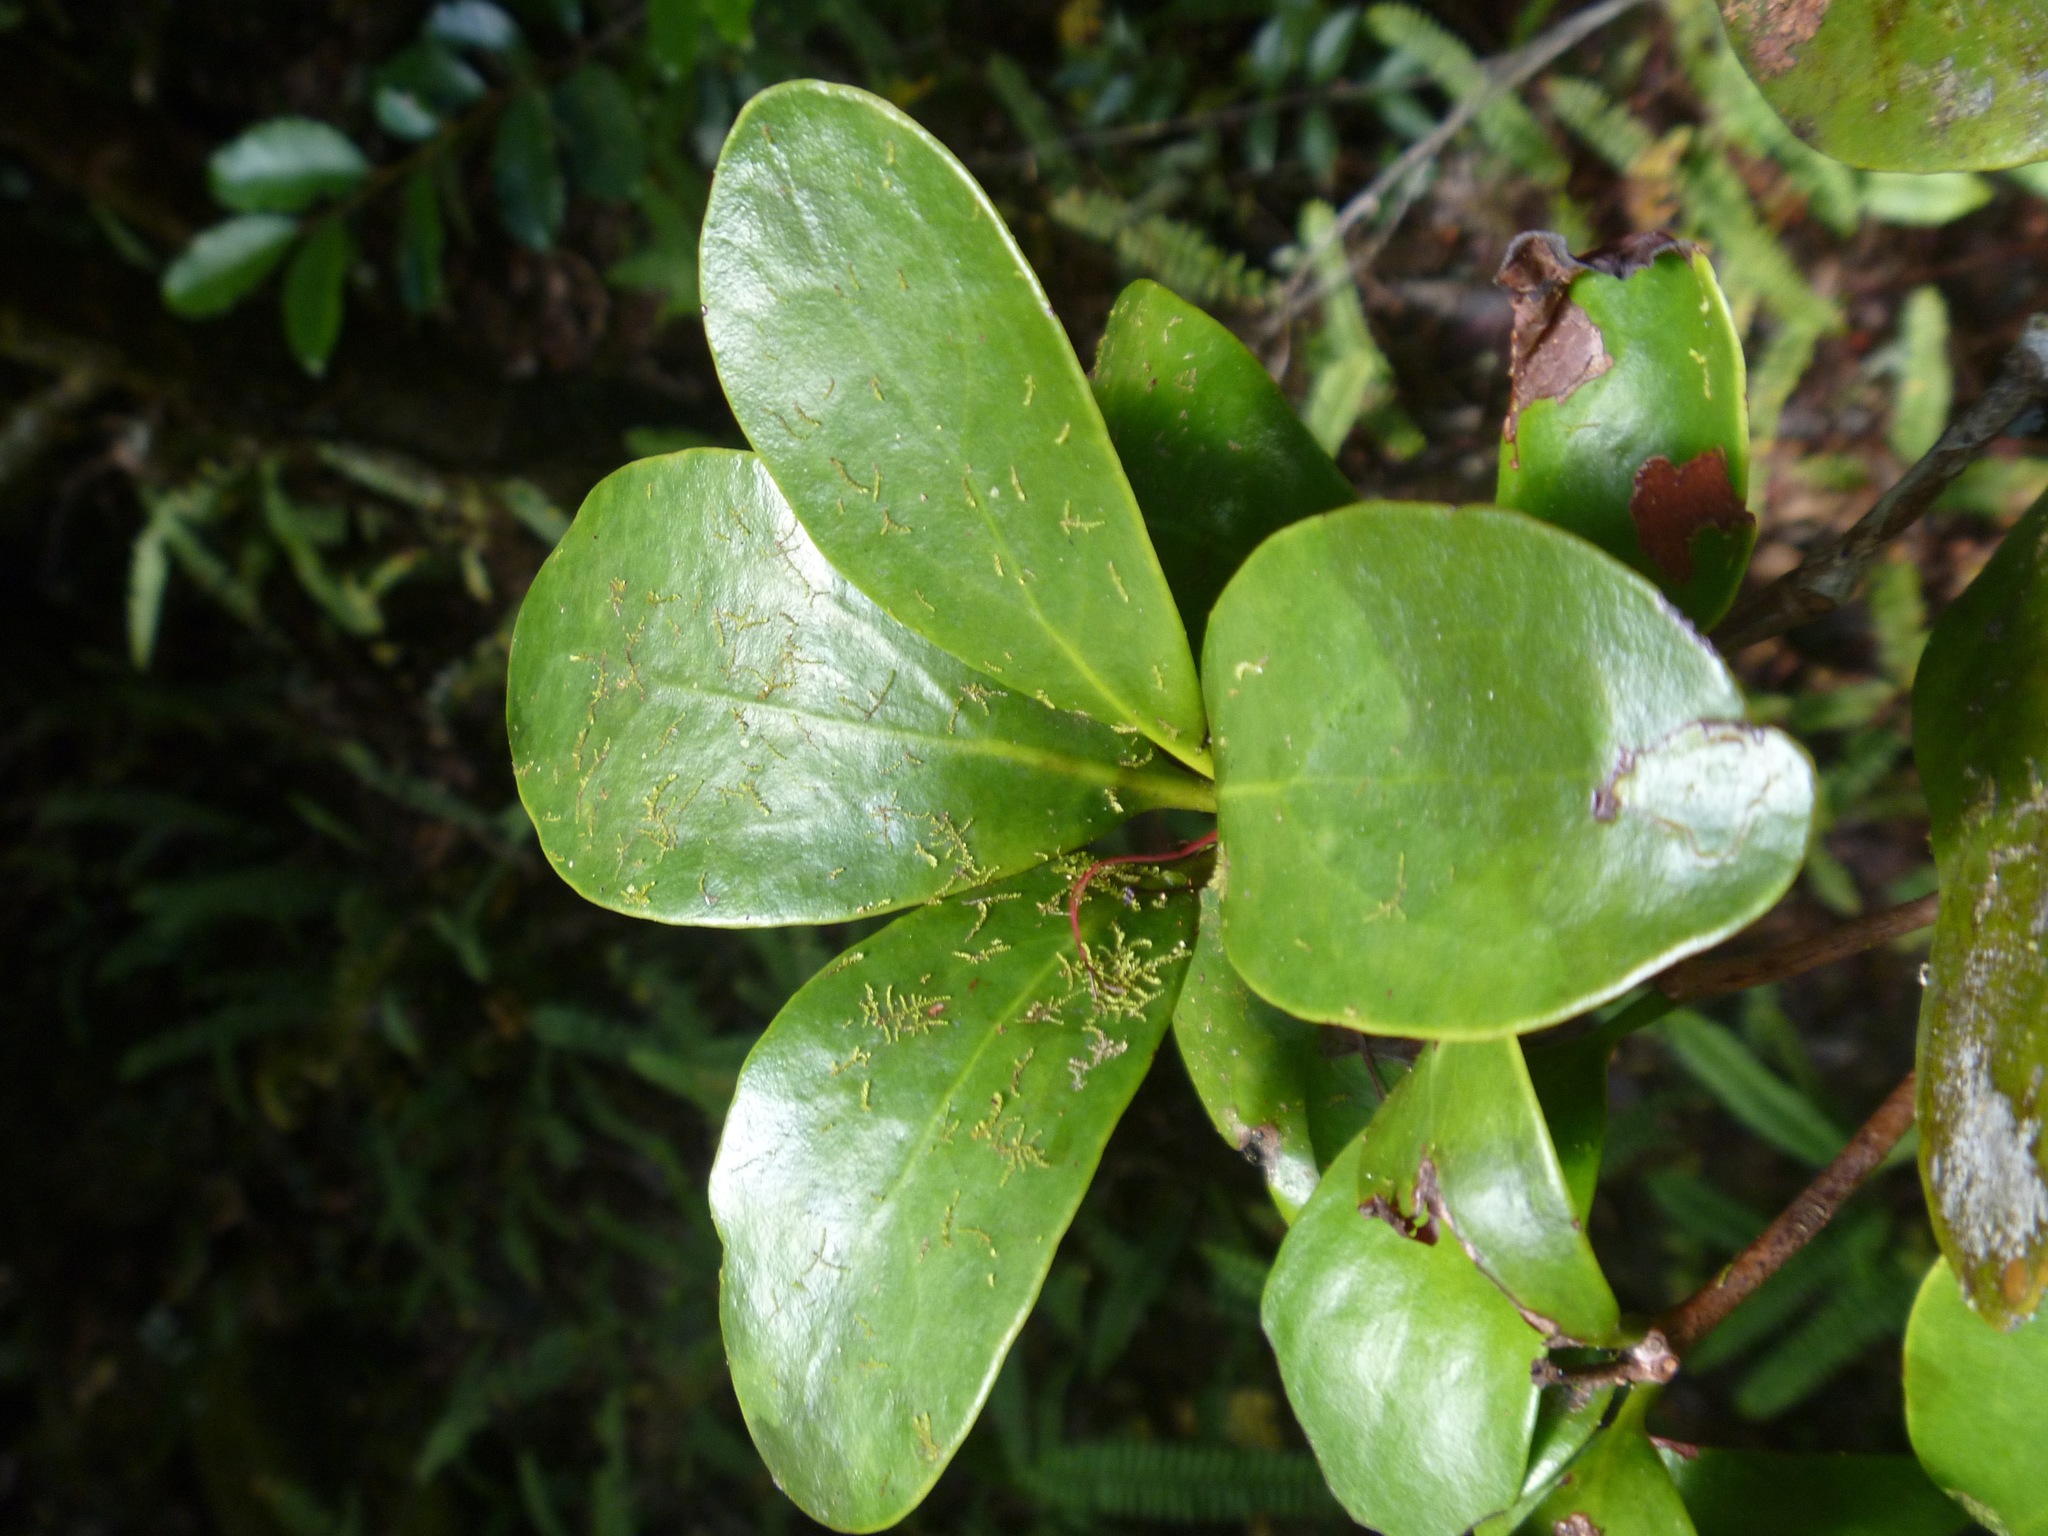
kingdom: Plantae
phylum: Tracheophyta
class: Magnoliopsida
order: Santalales
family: Loranthaceae
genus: Amyema
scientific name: Amyema scandens
